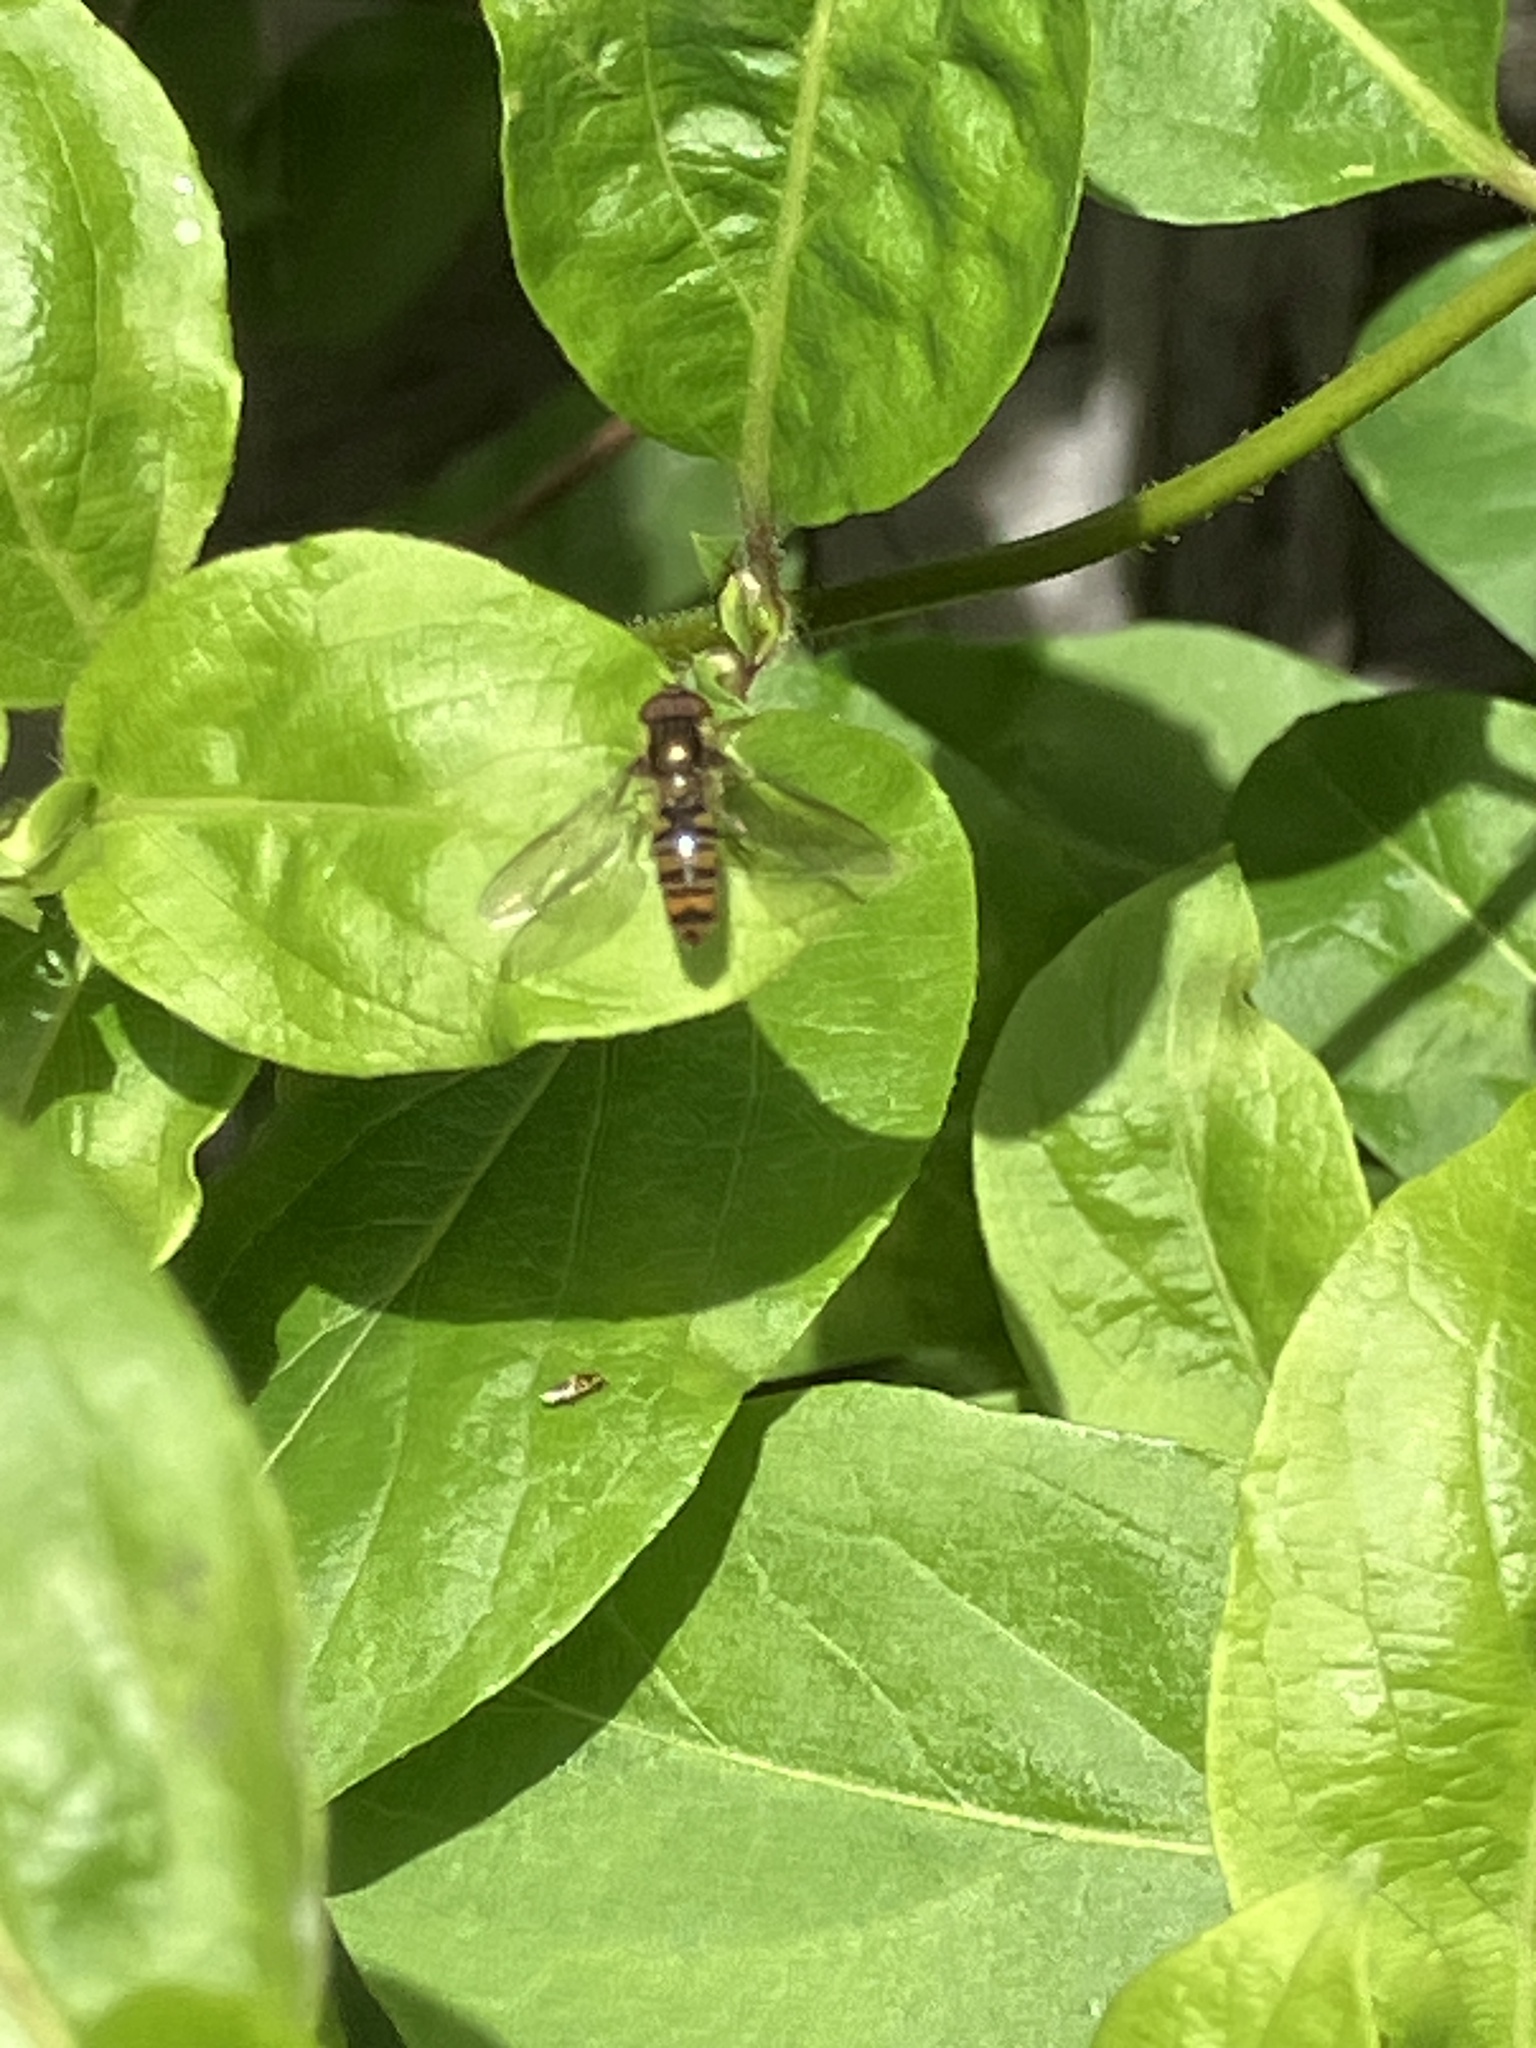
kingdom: Animalia
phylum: Arthropoda
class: Insecta
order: Diptera
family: Syrphidae
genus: Episyrphus
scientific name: Episyrphus balteatus
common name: Marmalade hoverfly
